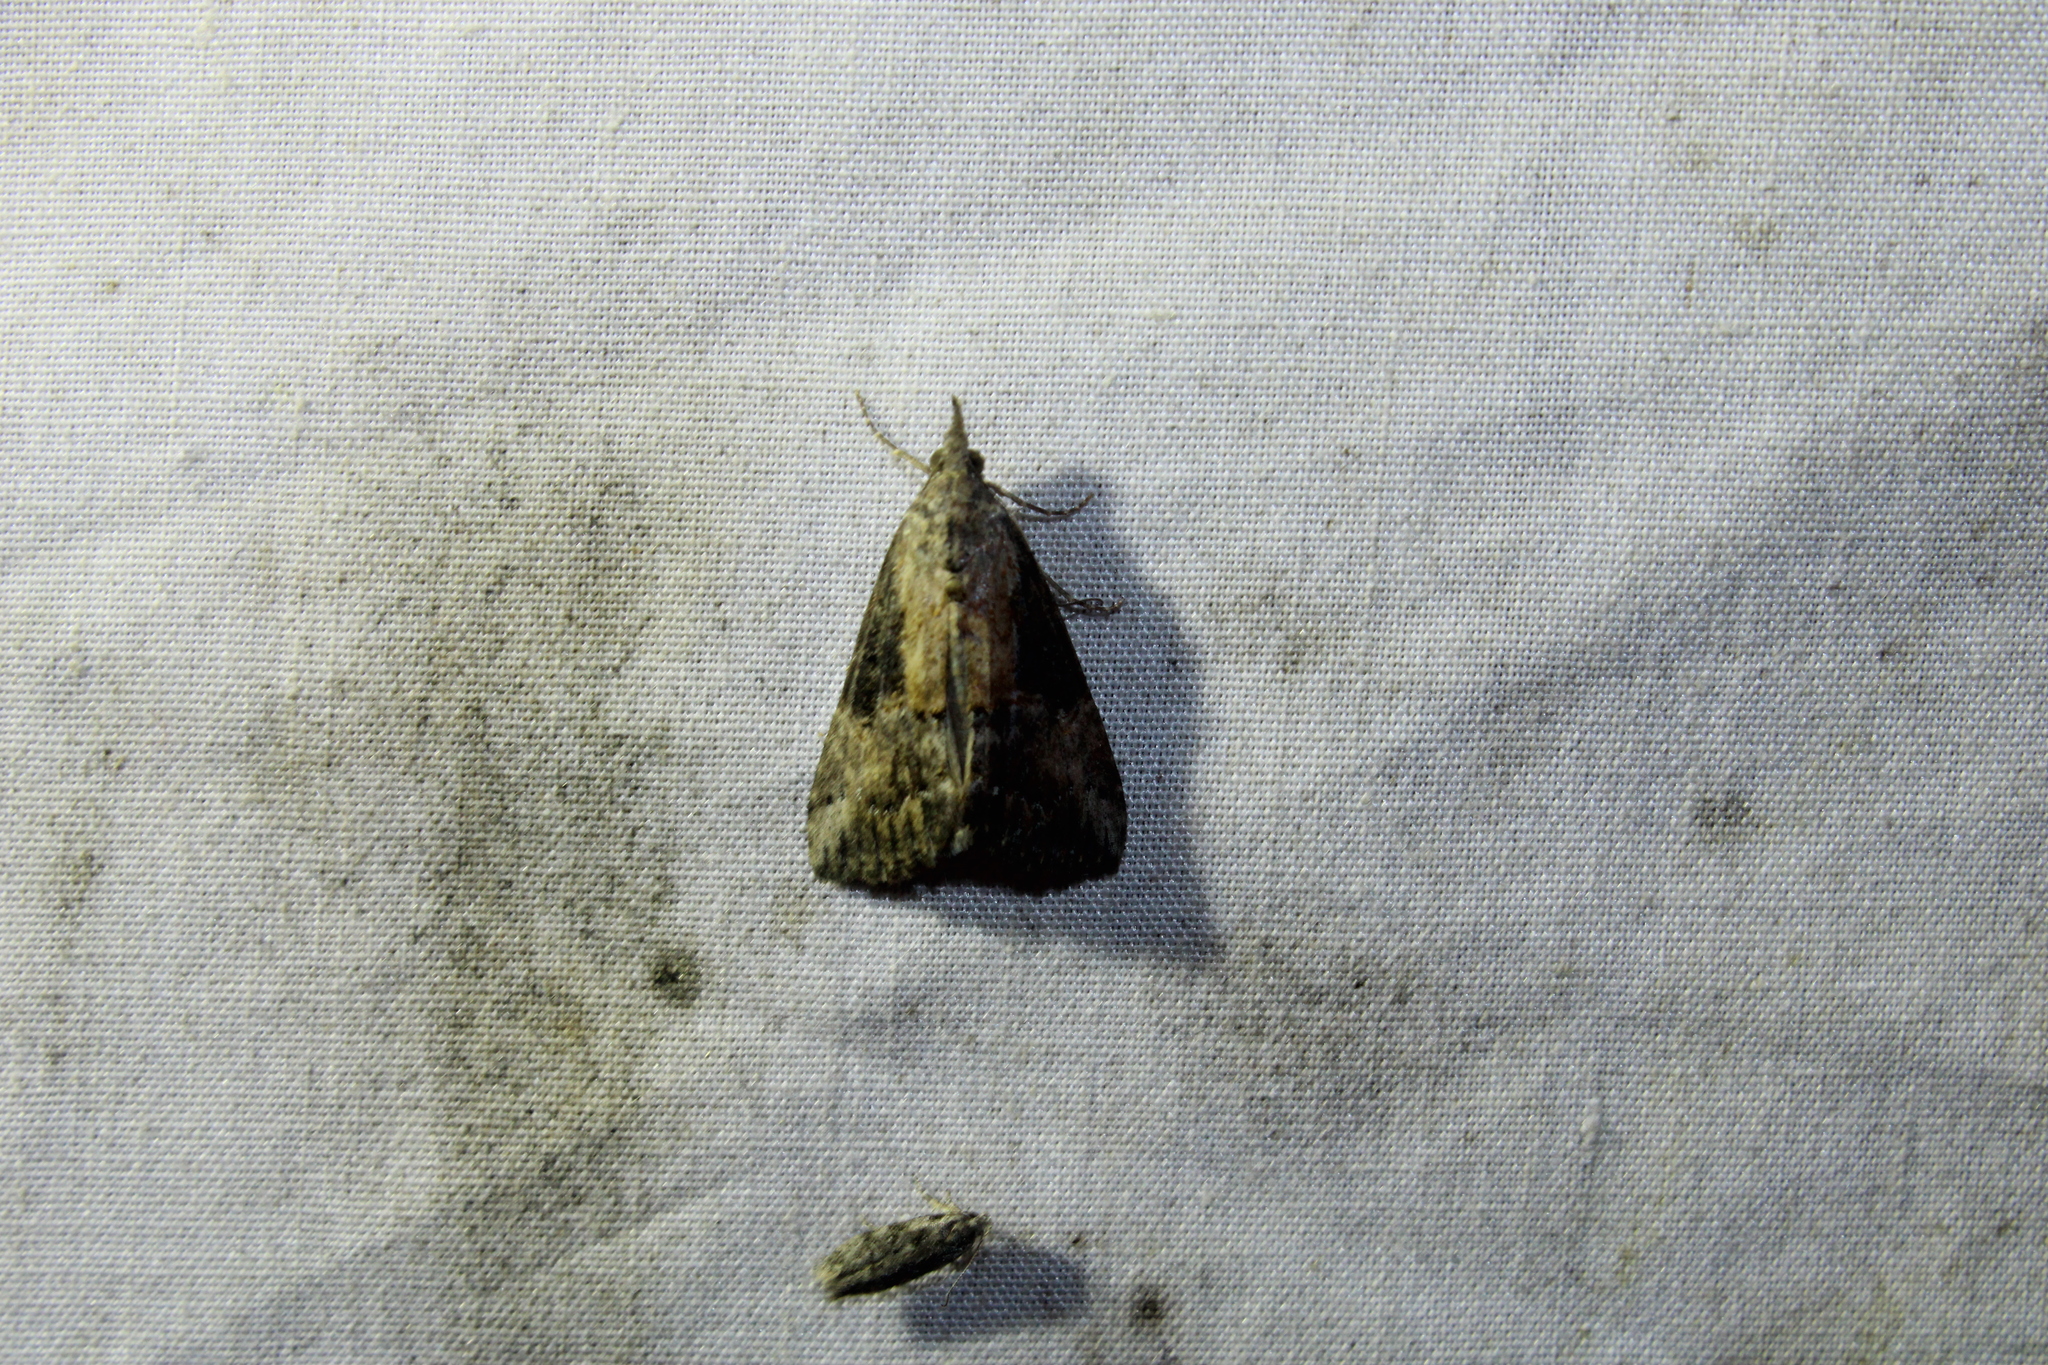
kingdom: Animalia
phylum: Arthropoda
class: Insecta
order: Lepidoptera
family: Erebidae
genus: Hypena
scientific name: Hypena scabra
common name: Green cloverworm
